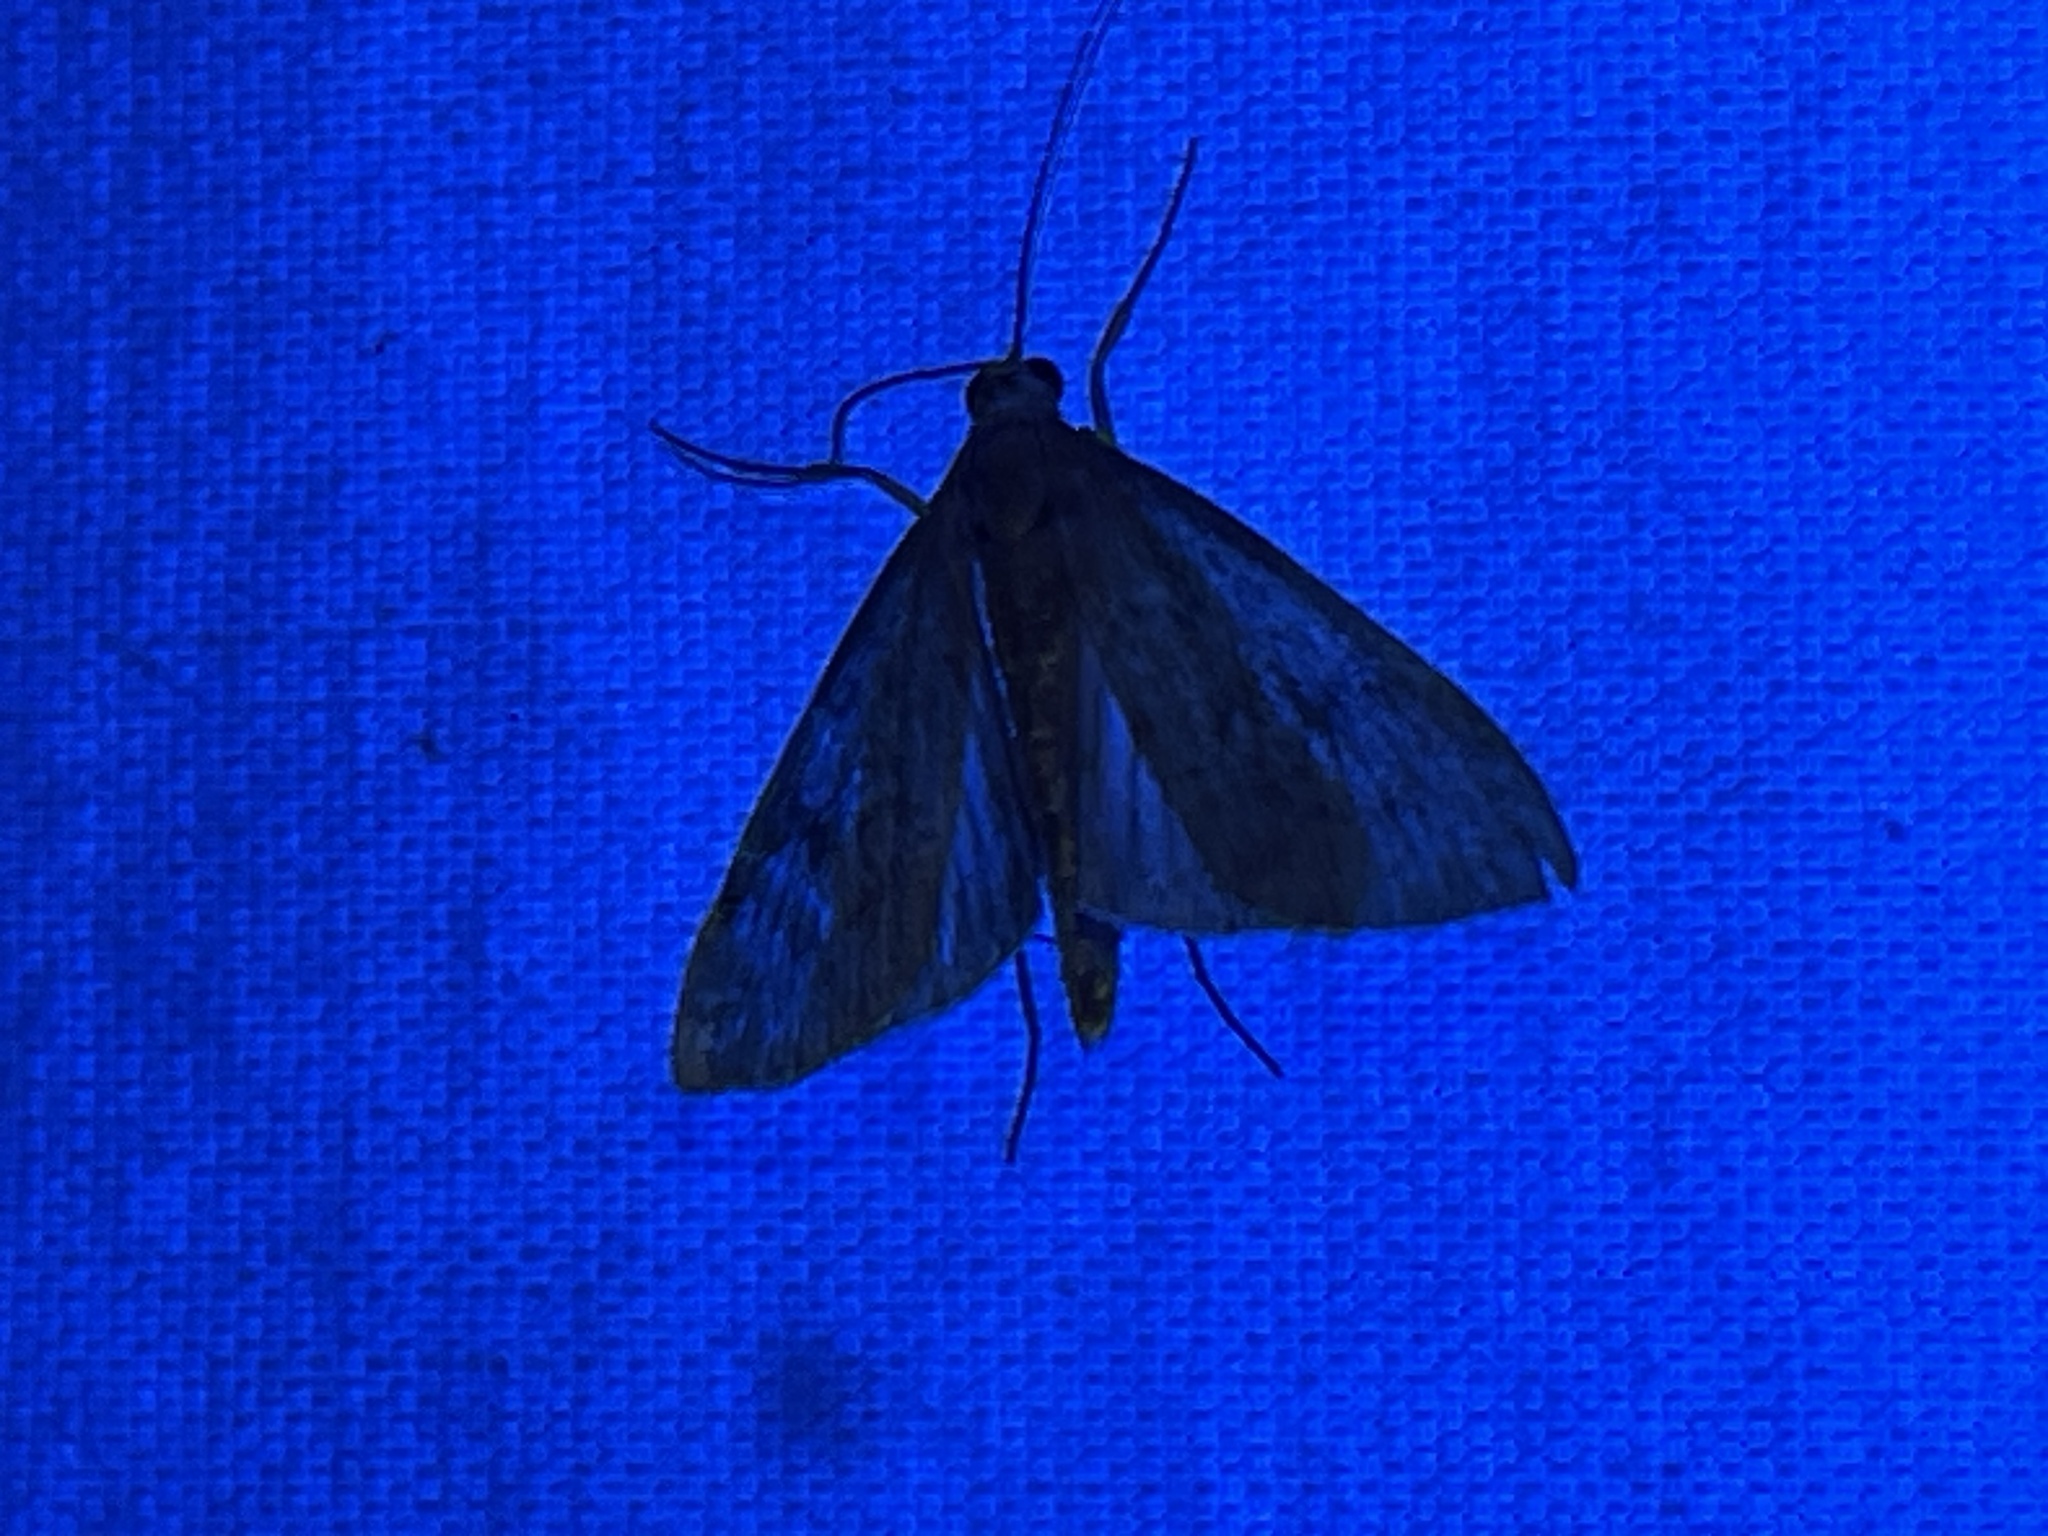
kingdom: Animalia
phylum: Arthropoda
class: Insecta
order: Lepidoptera
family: Crambidae
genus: Udea
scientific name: Udea rubigalis
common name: Celery leaftier moth
